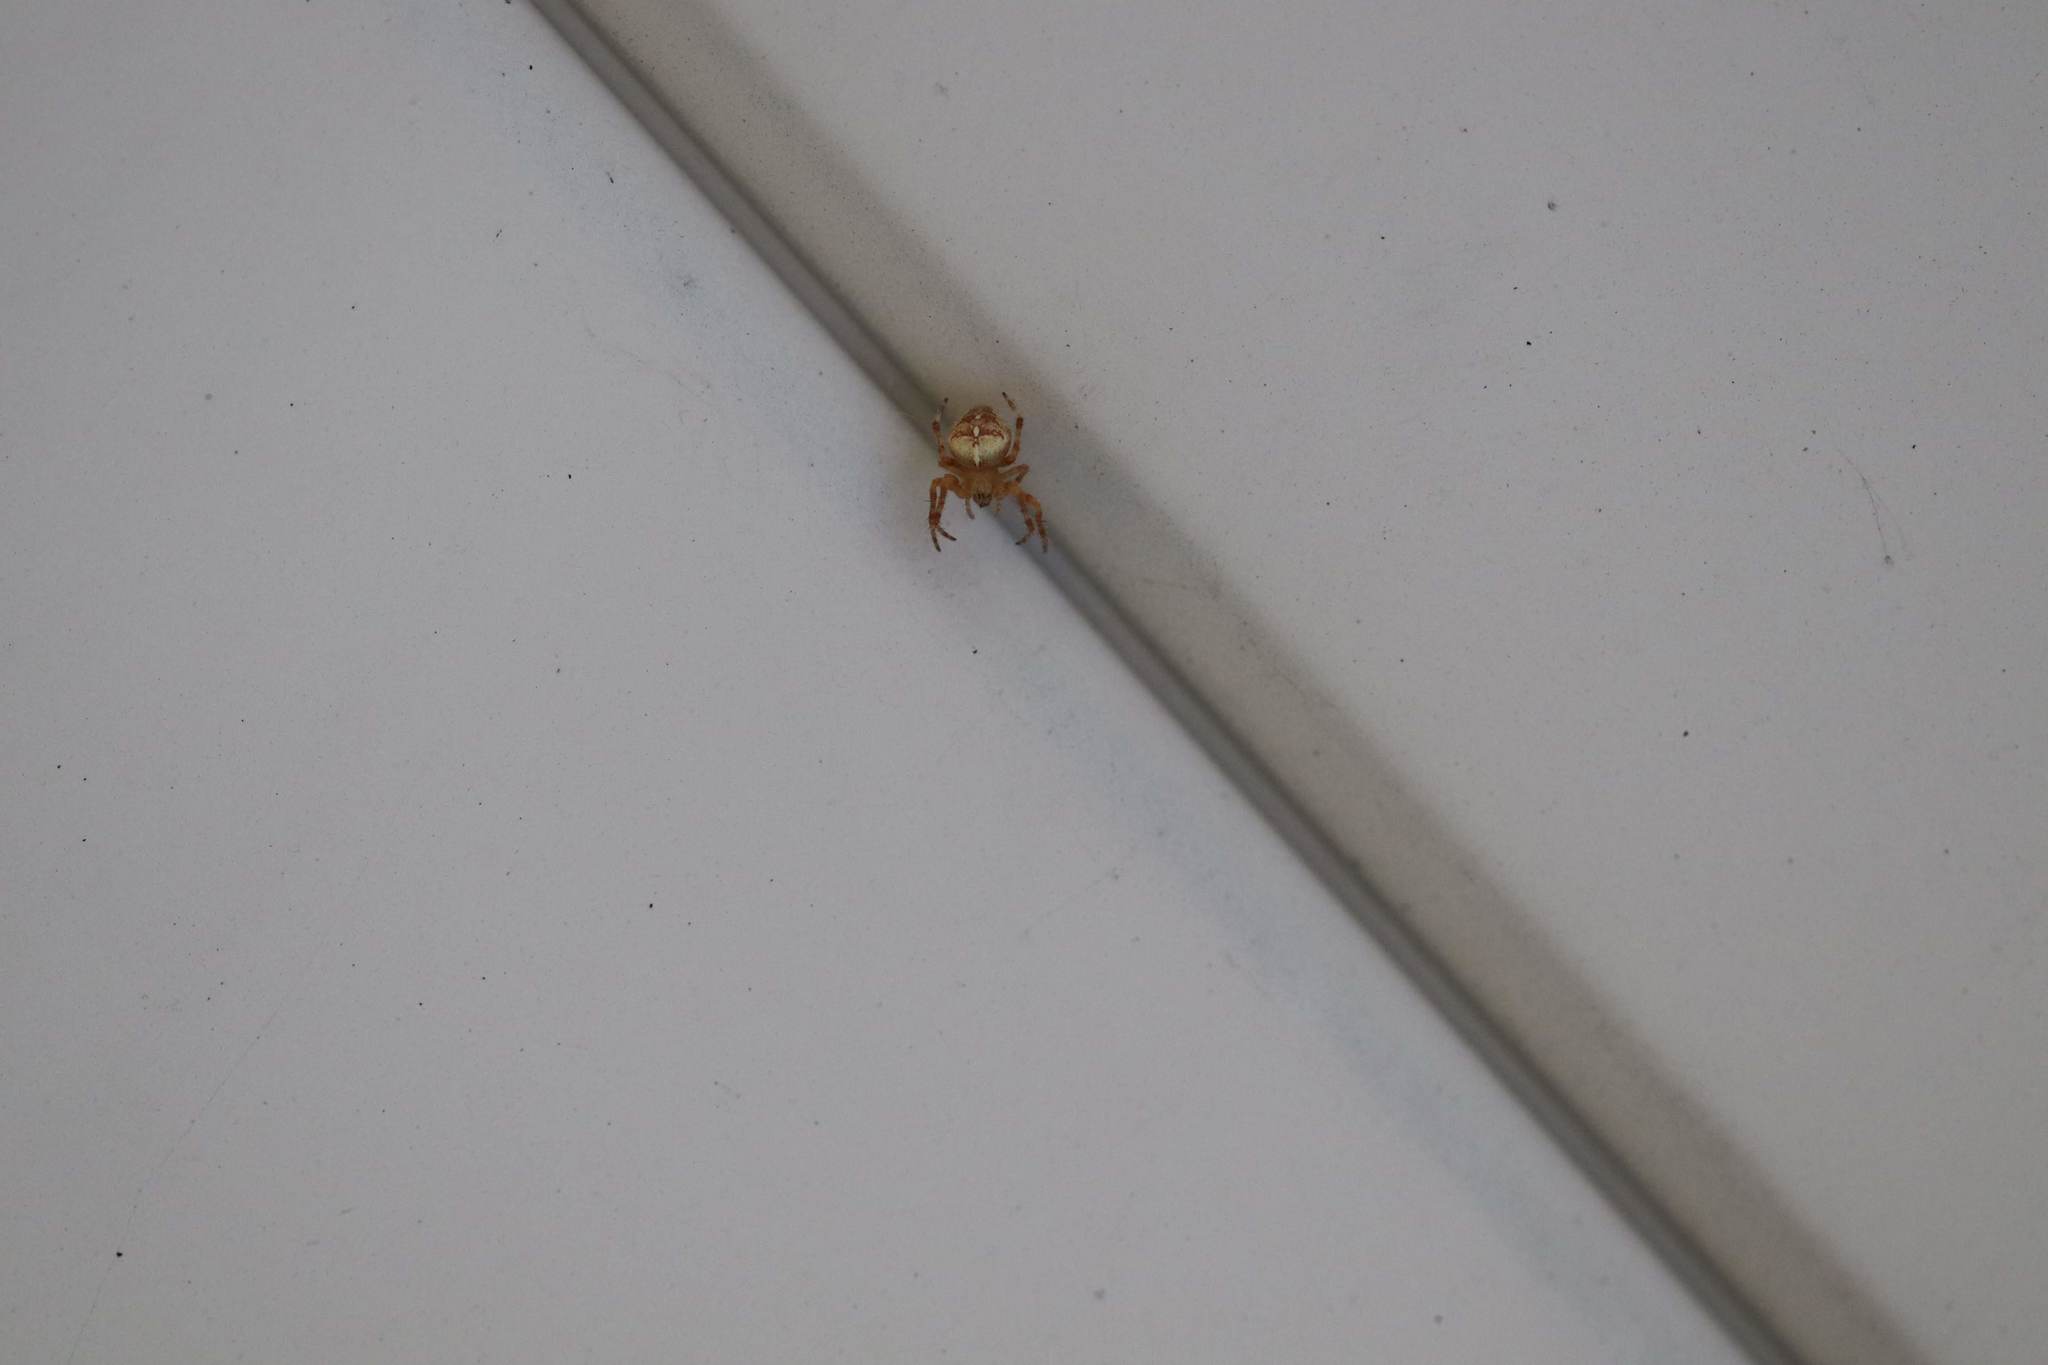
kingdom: Animalia
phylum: Arthropoda
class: Arachnida
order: Araneae
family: Araneidae
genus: Araneus
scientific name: Araneus diadematus
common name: Cross orbweaver
